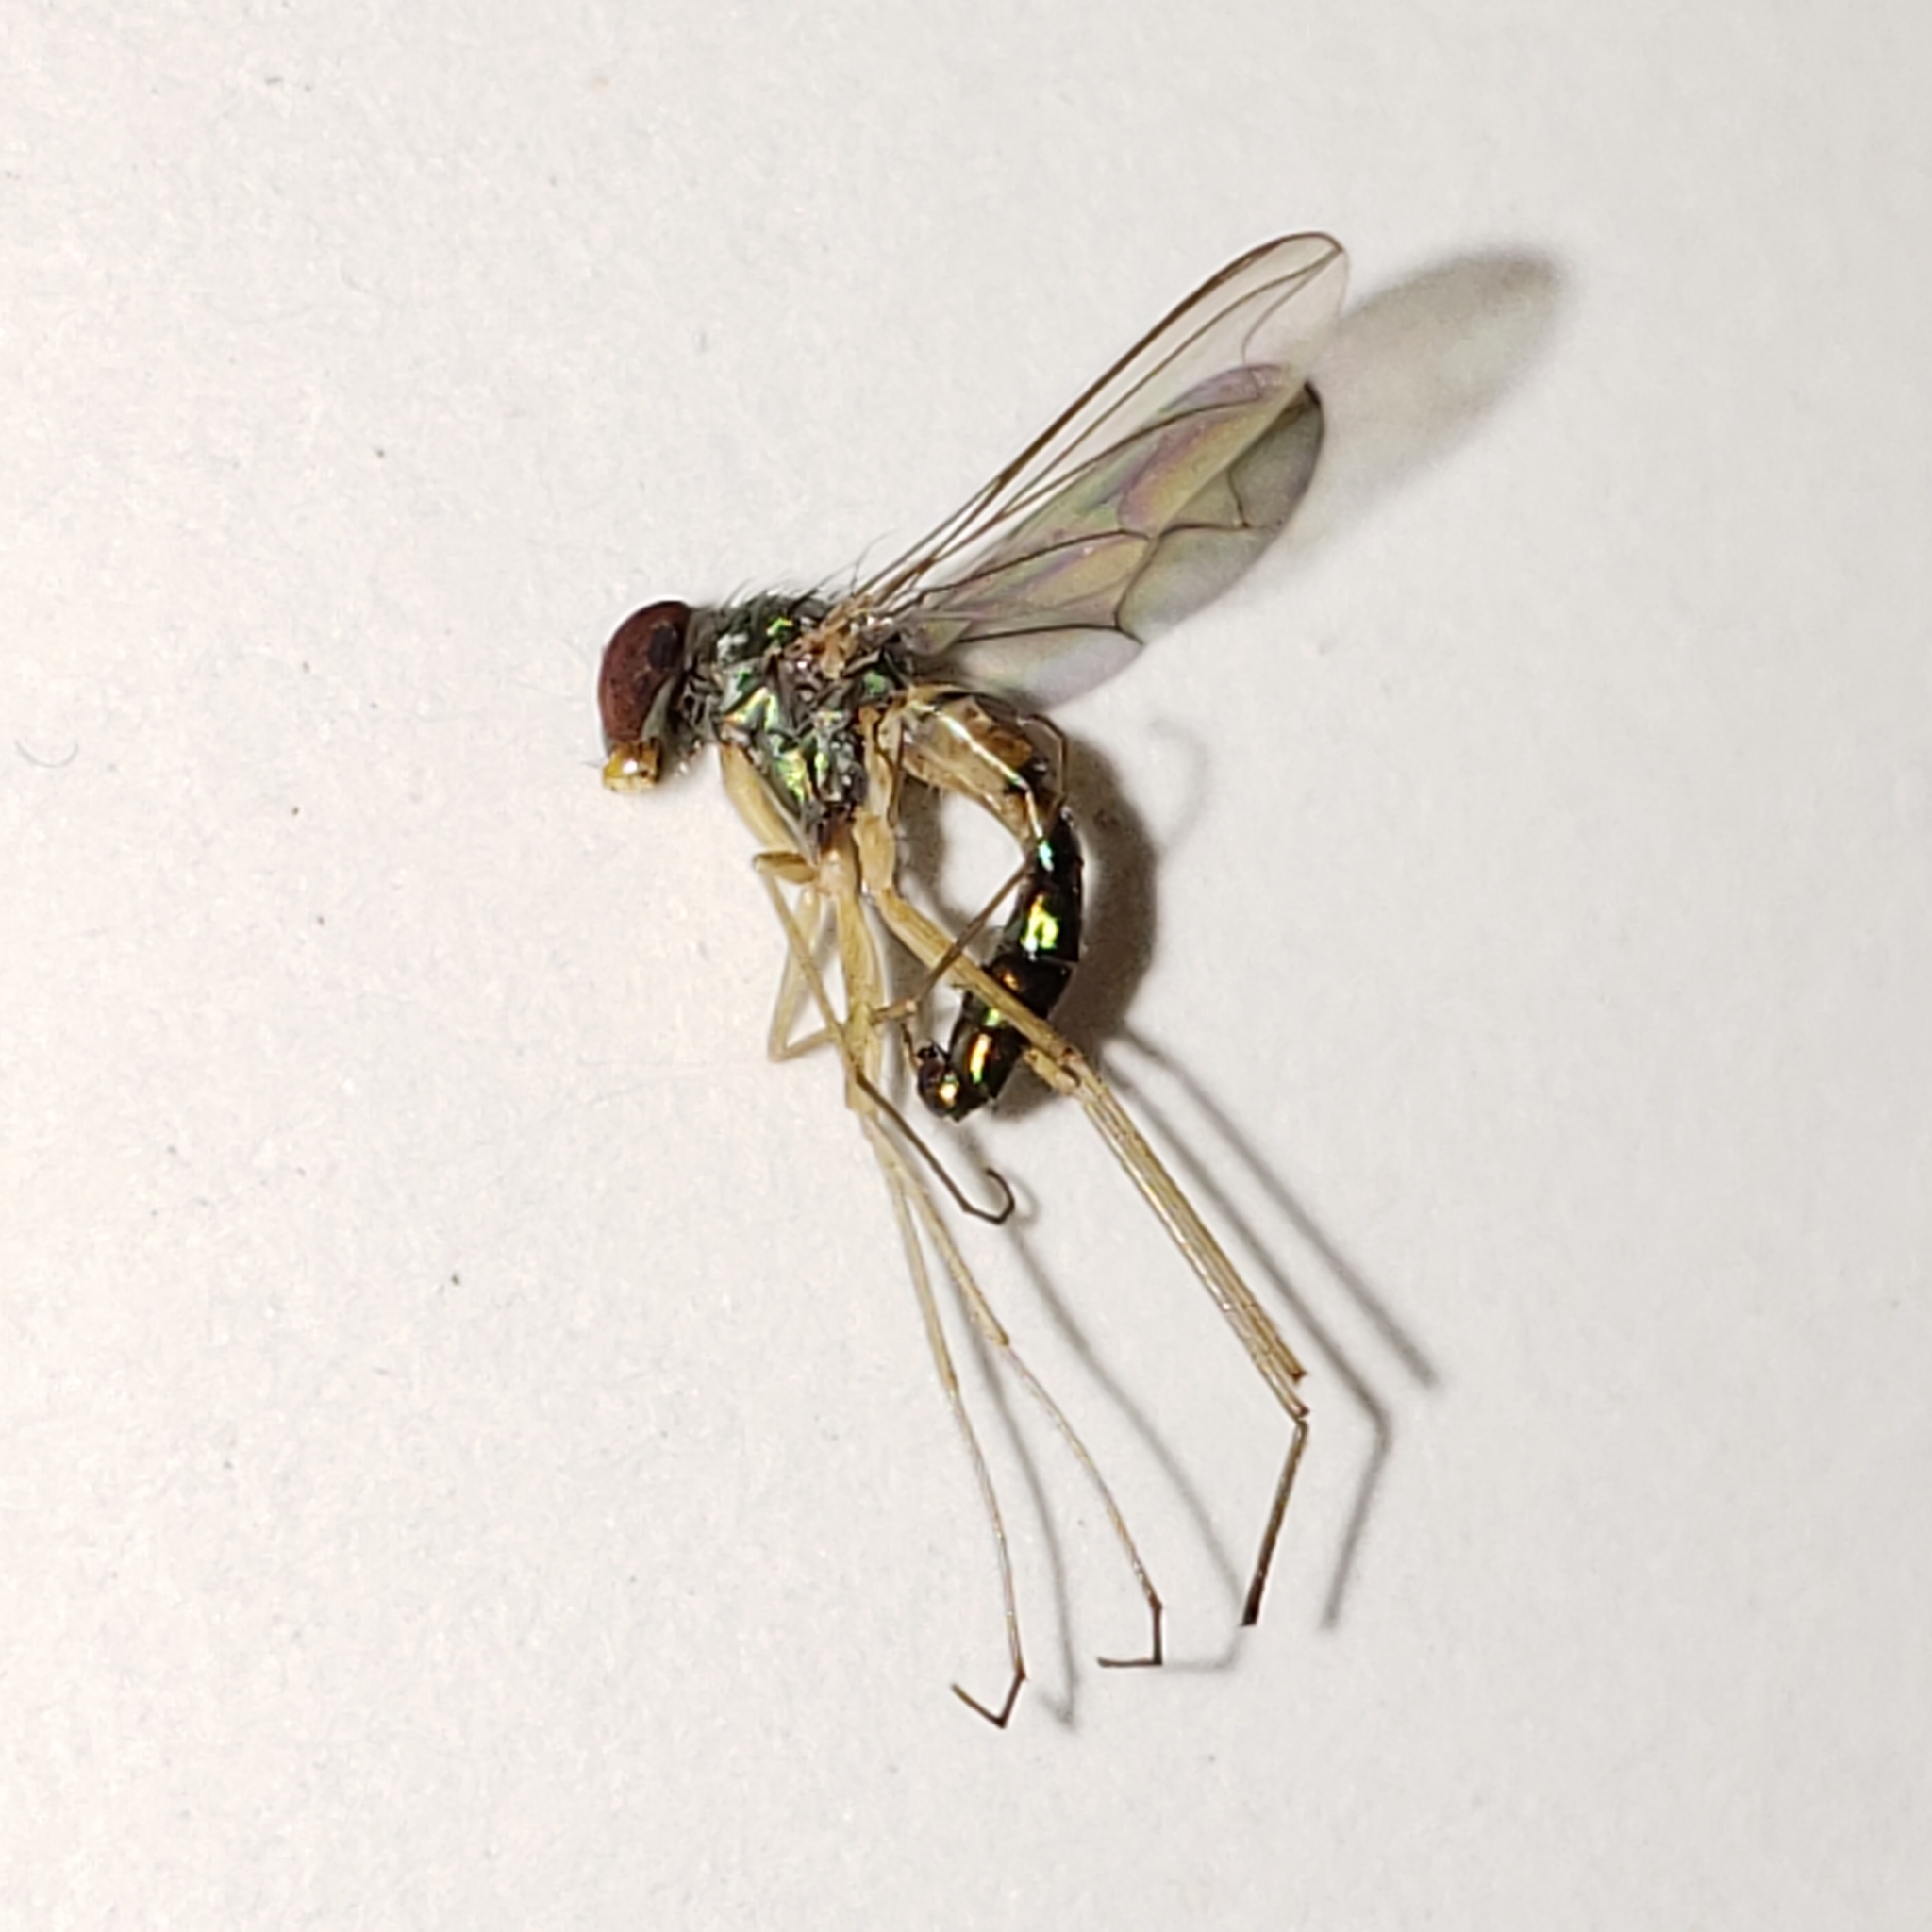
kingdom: Animalia
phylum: Arthropoda
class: Insecta
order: Diptera
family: Dolichopodidae
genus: Amblypsilopus
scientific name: Amblypsilopus variegatus
